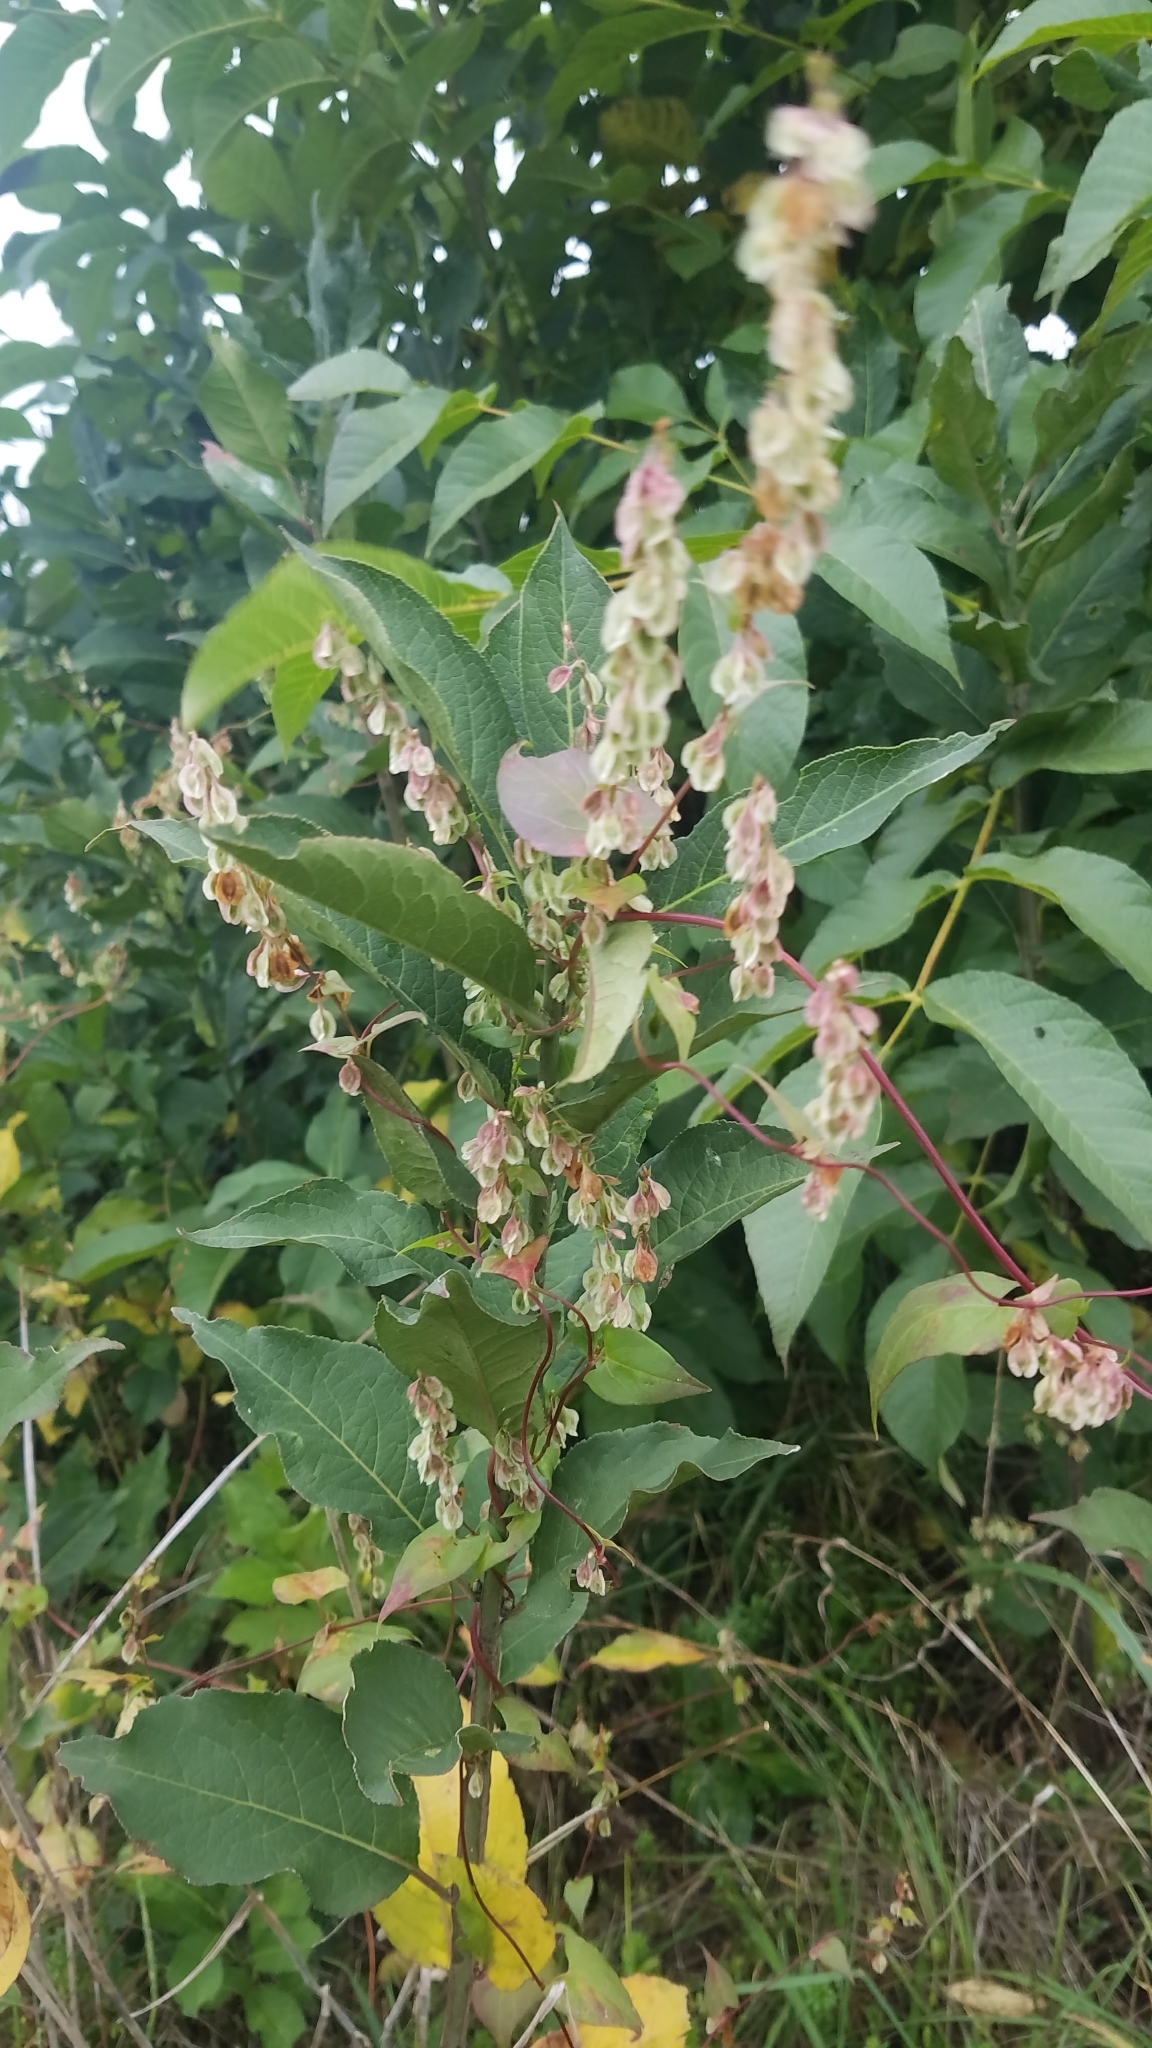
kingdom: Plantae
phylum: Tracheophyta
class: Magnoliopsida
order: Caryophyllales
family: Polygonaceae
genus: Fallopia
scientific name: Fallopia dumetorum
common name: Copse-bindweed
